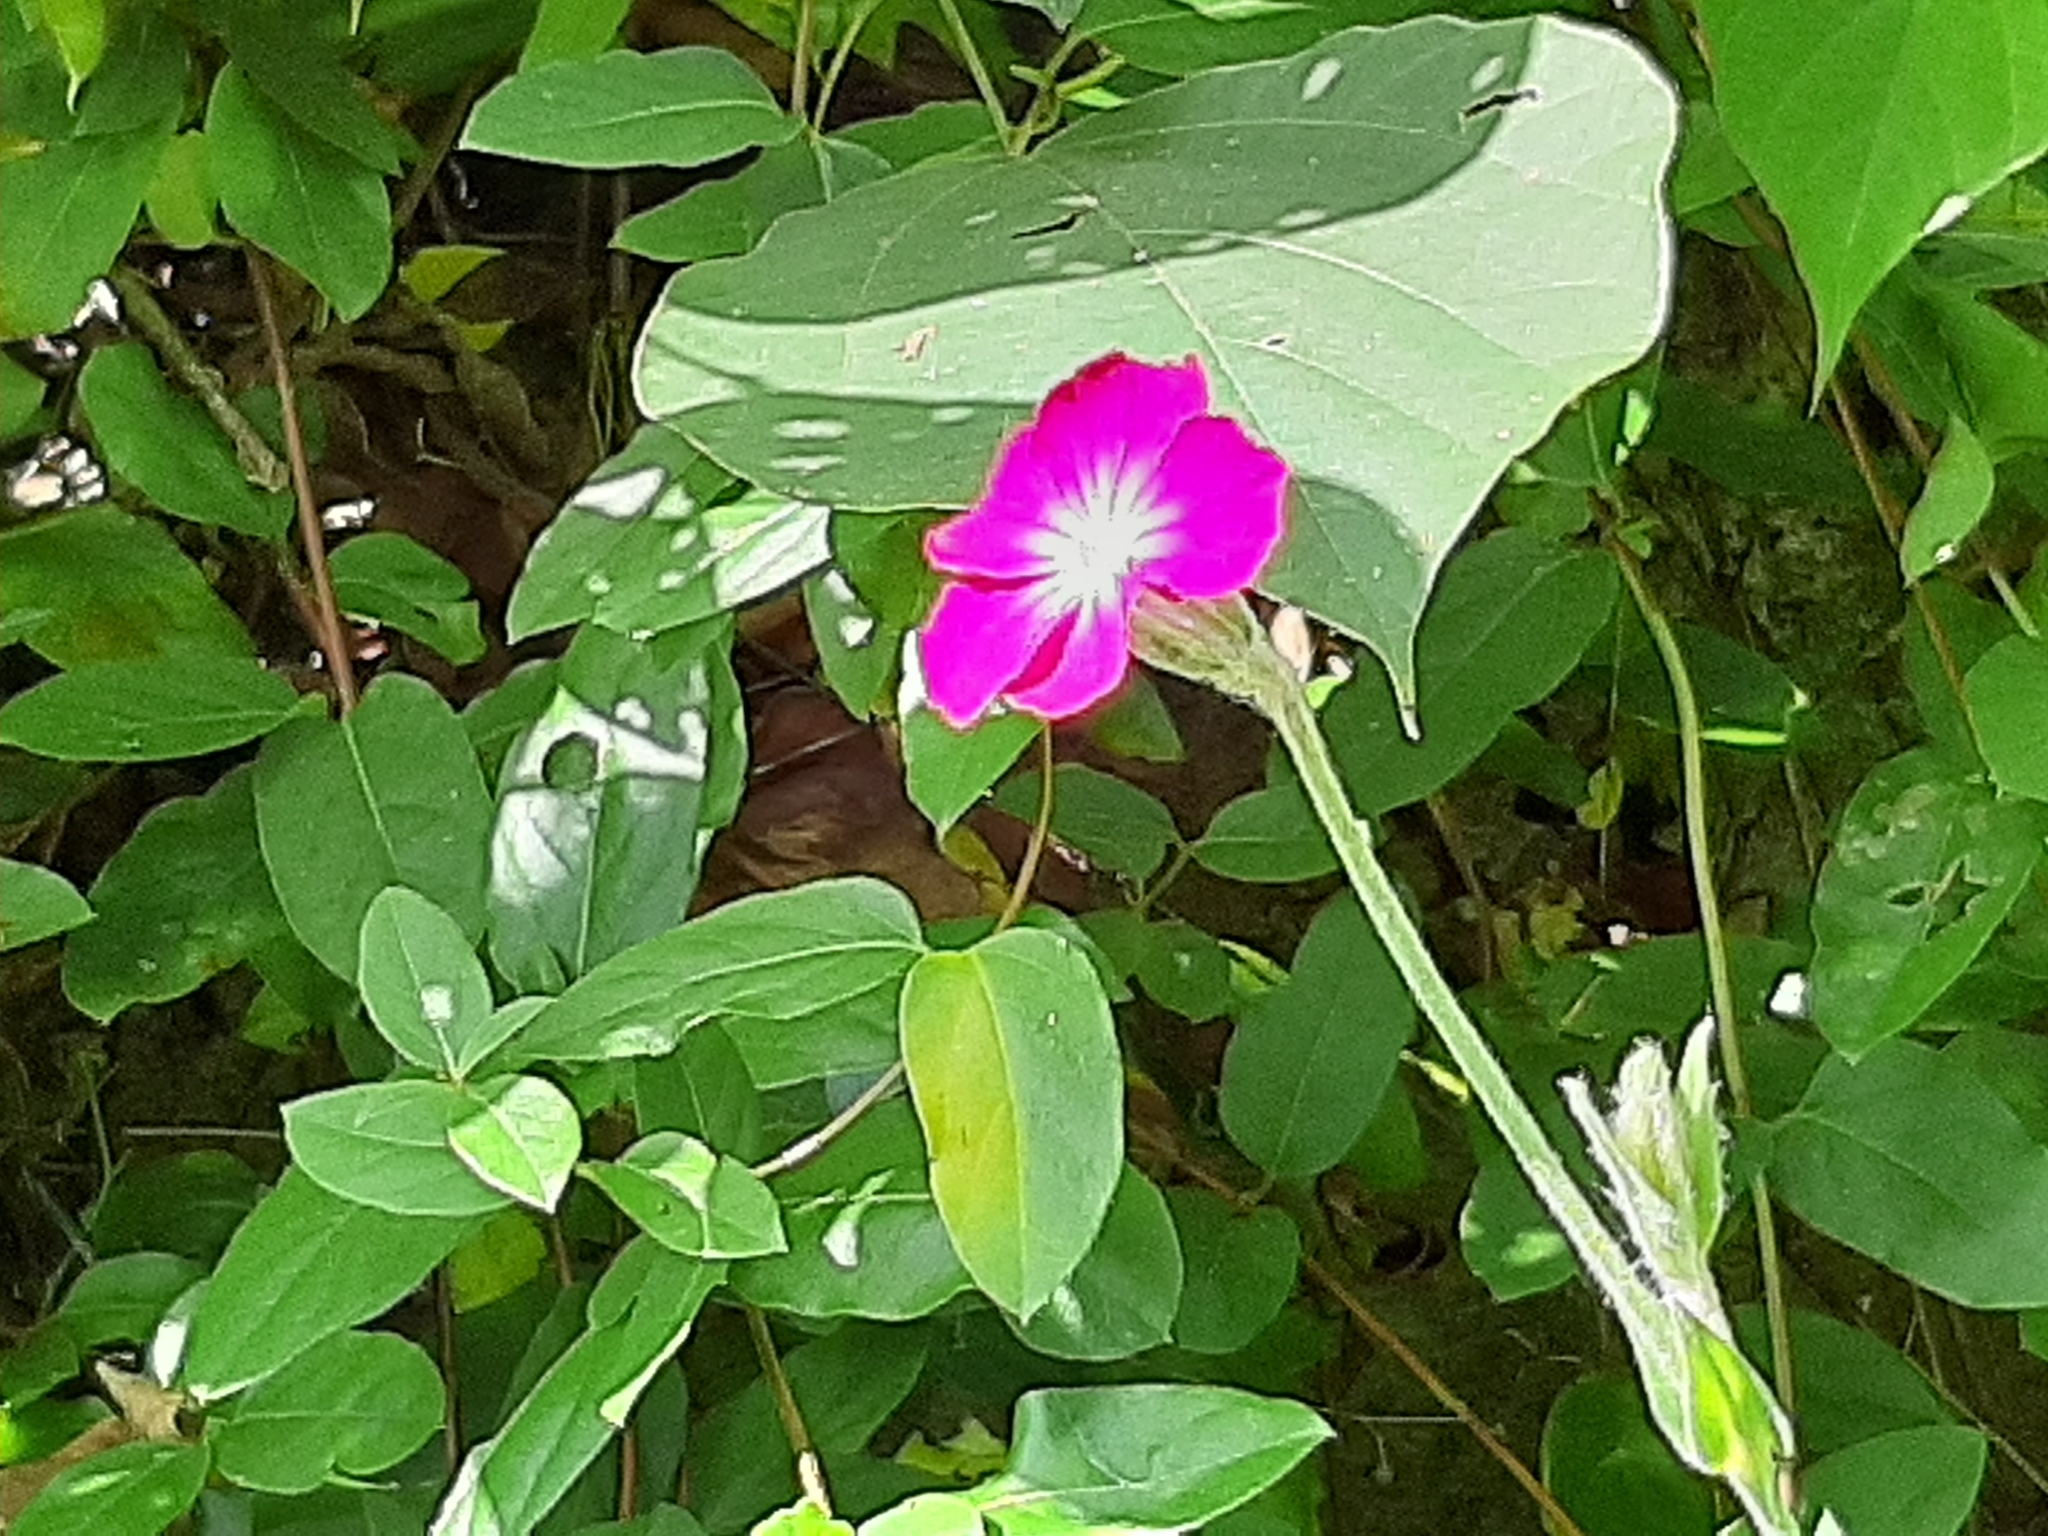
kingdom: Plantae
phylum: Tracheophyta
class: Magnoliopsida
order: Caryophyllales
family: Caryophyllaceae
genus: Silene
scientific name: Silene coronaria
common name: Rose campion
